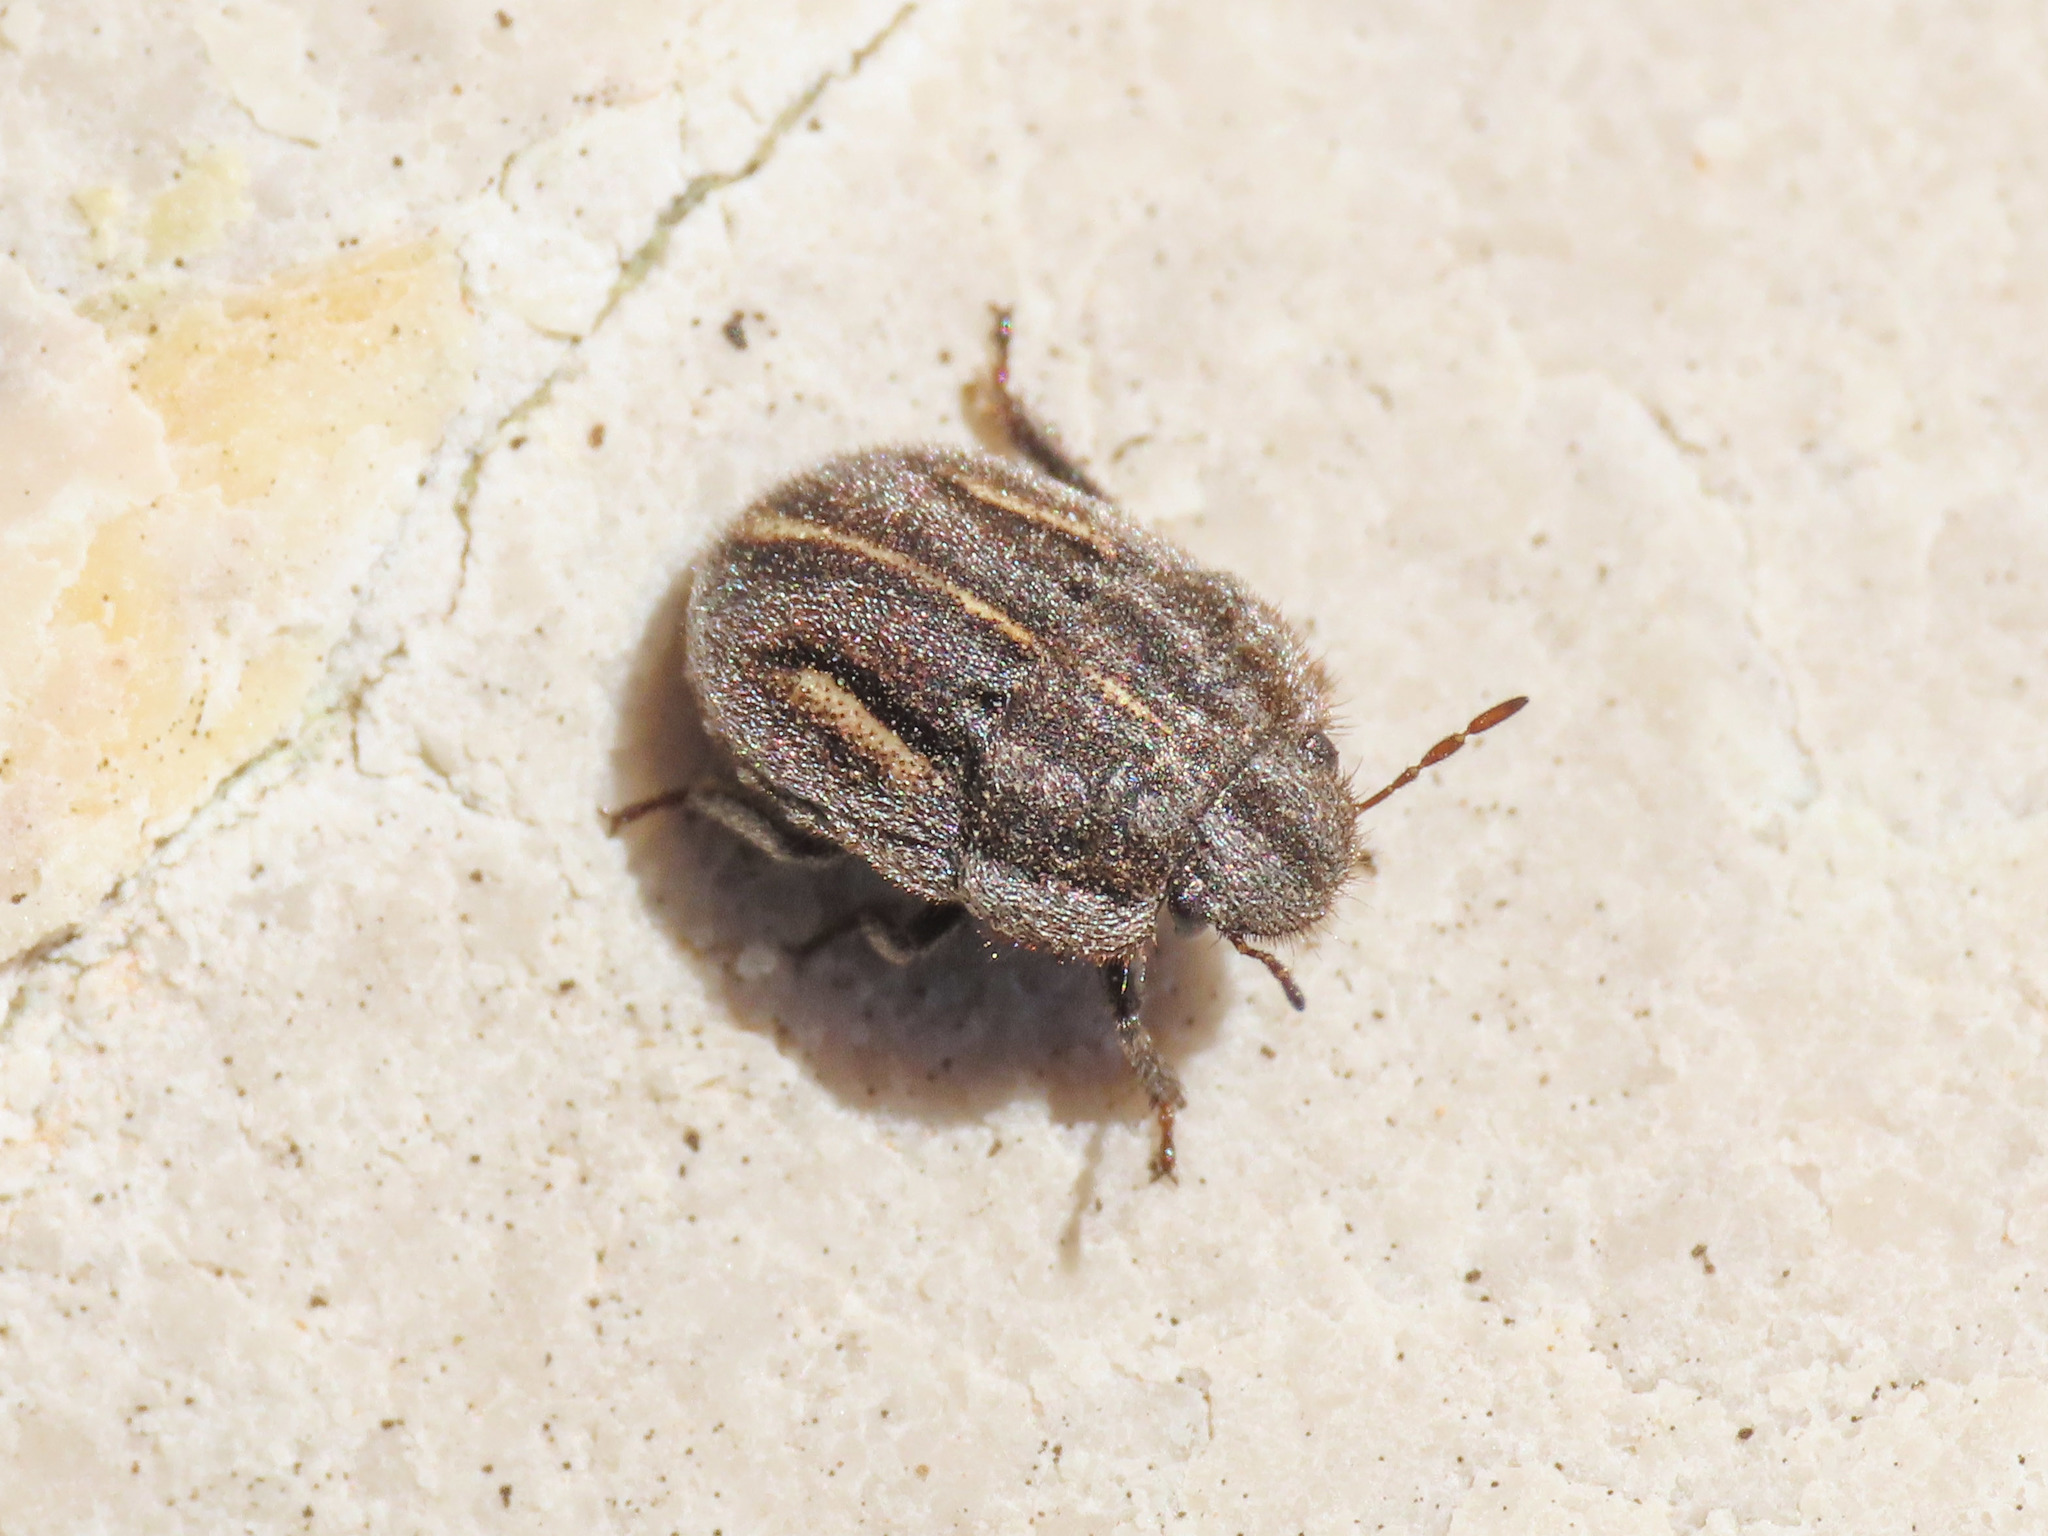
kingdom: Animalia
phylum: Arthropoda
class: Insecta
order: Hemiptera
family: Scutelleridae
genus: Odontoscelis
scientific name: Odontoscelis lineola
